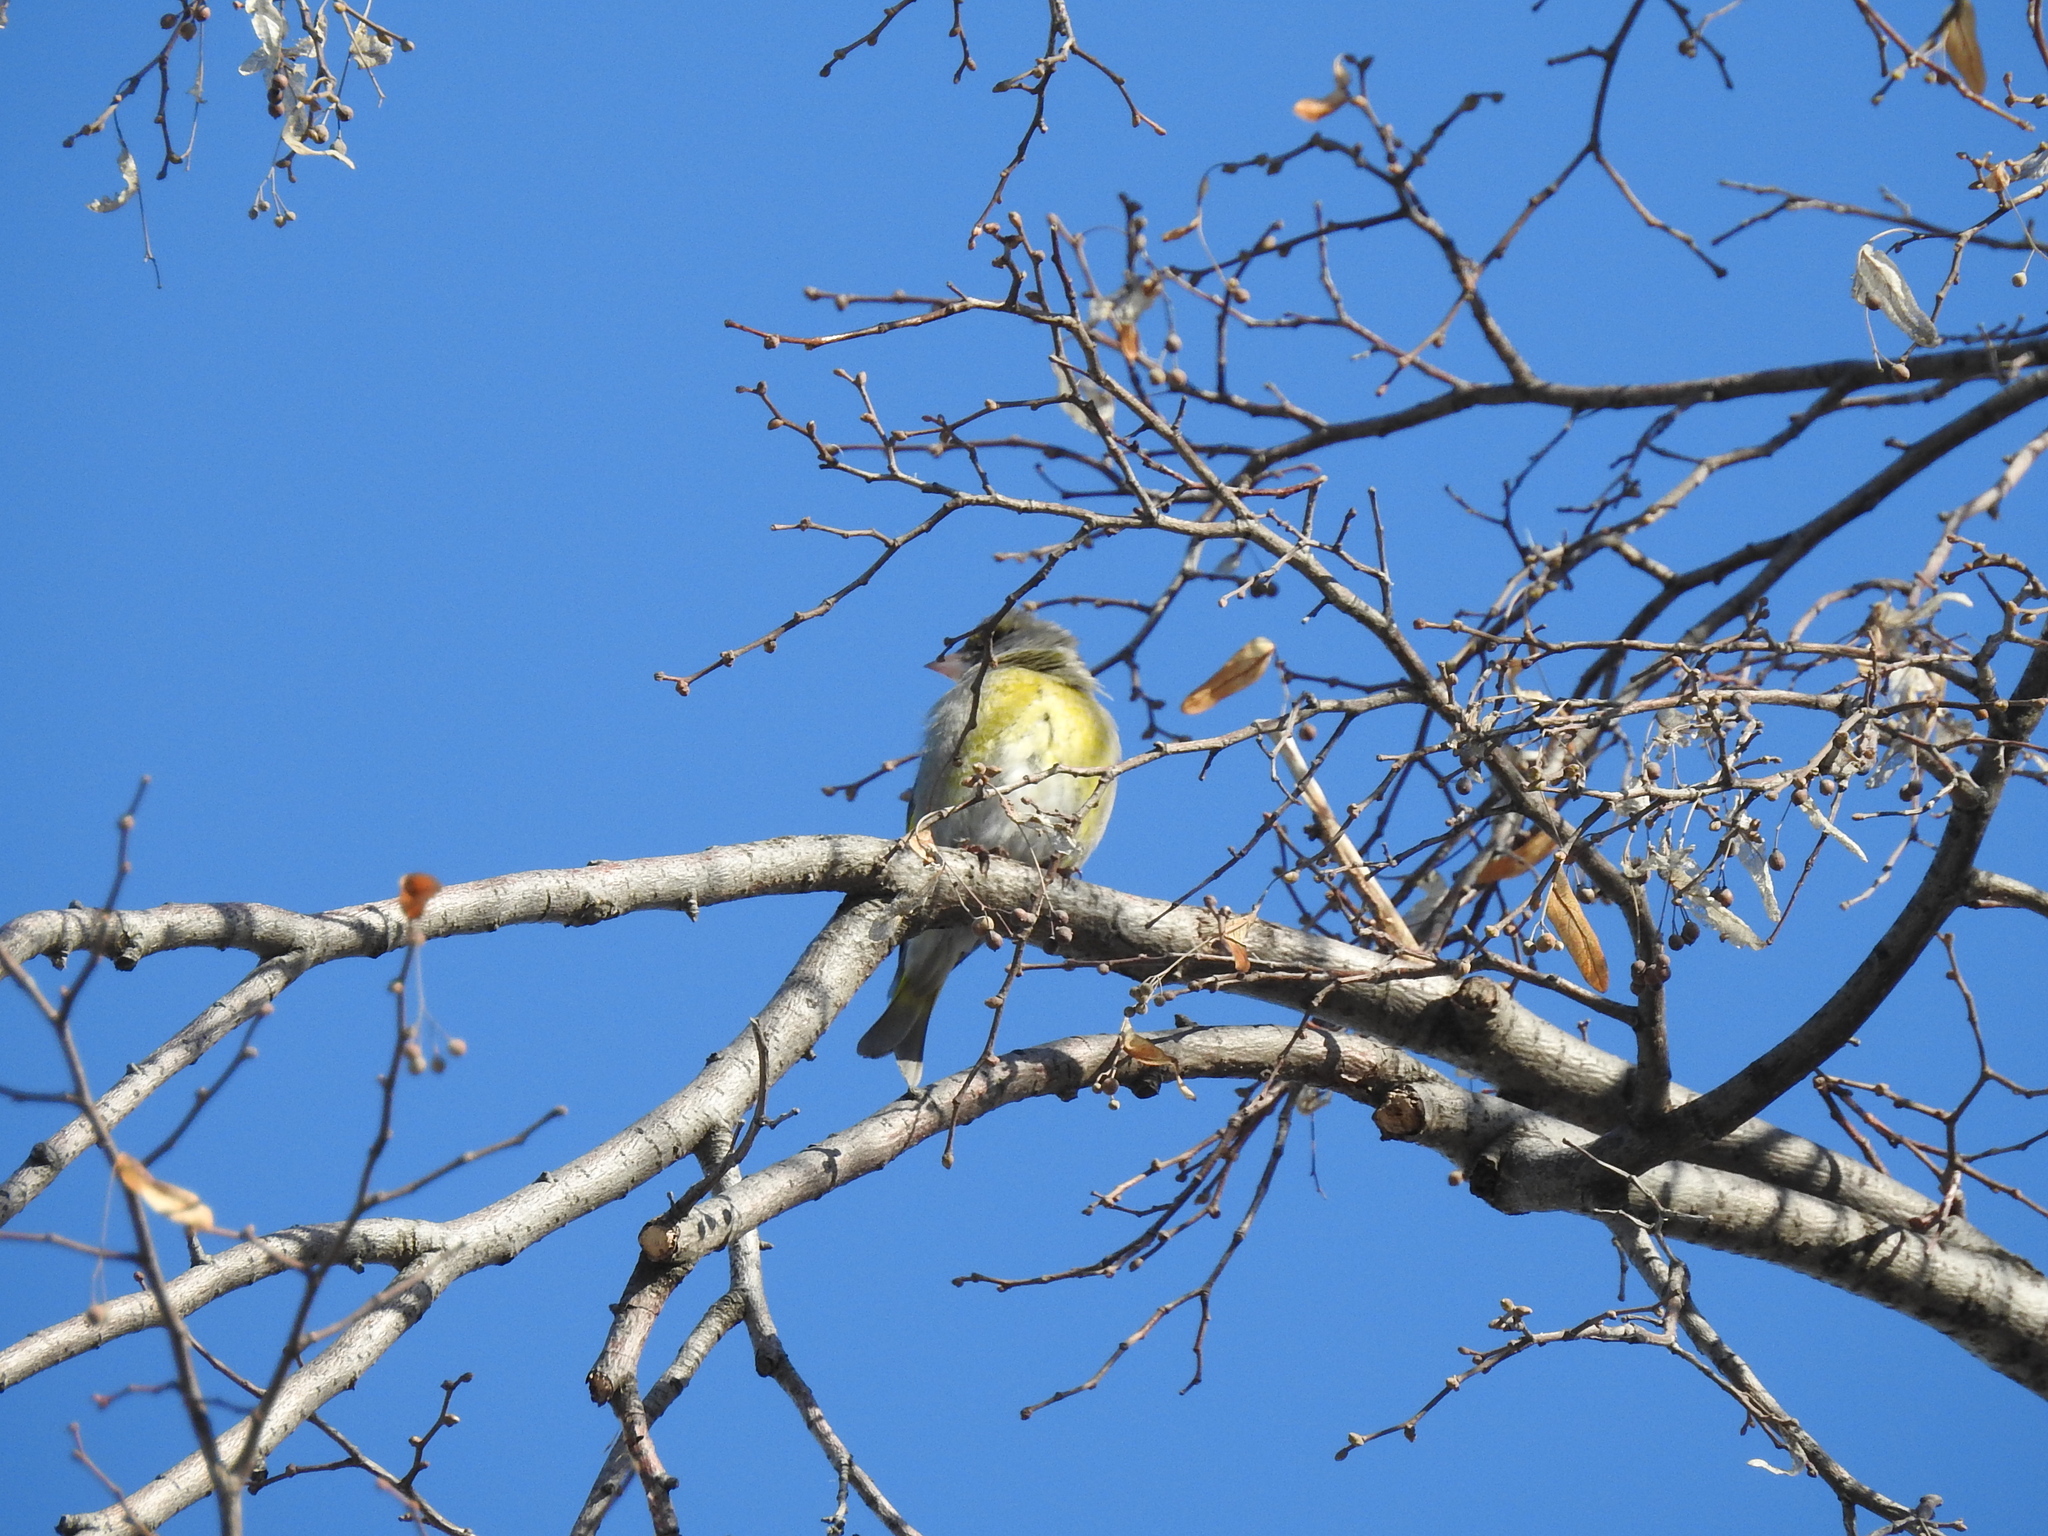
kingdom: Plantae
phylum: Tracheophyta
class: Liliopsida
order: Poales
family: Poaceae
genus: Chloris
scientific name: Chloris chloris
